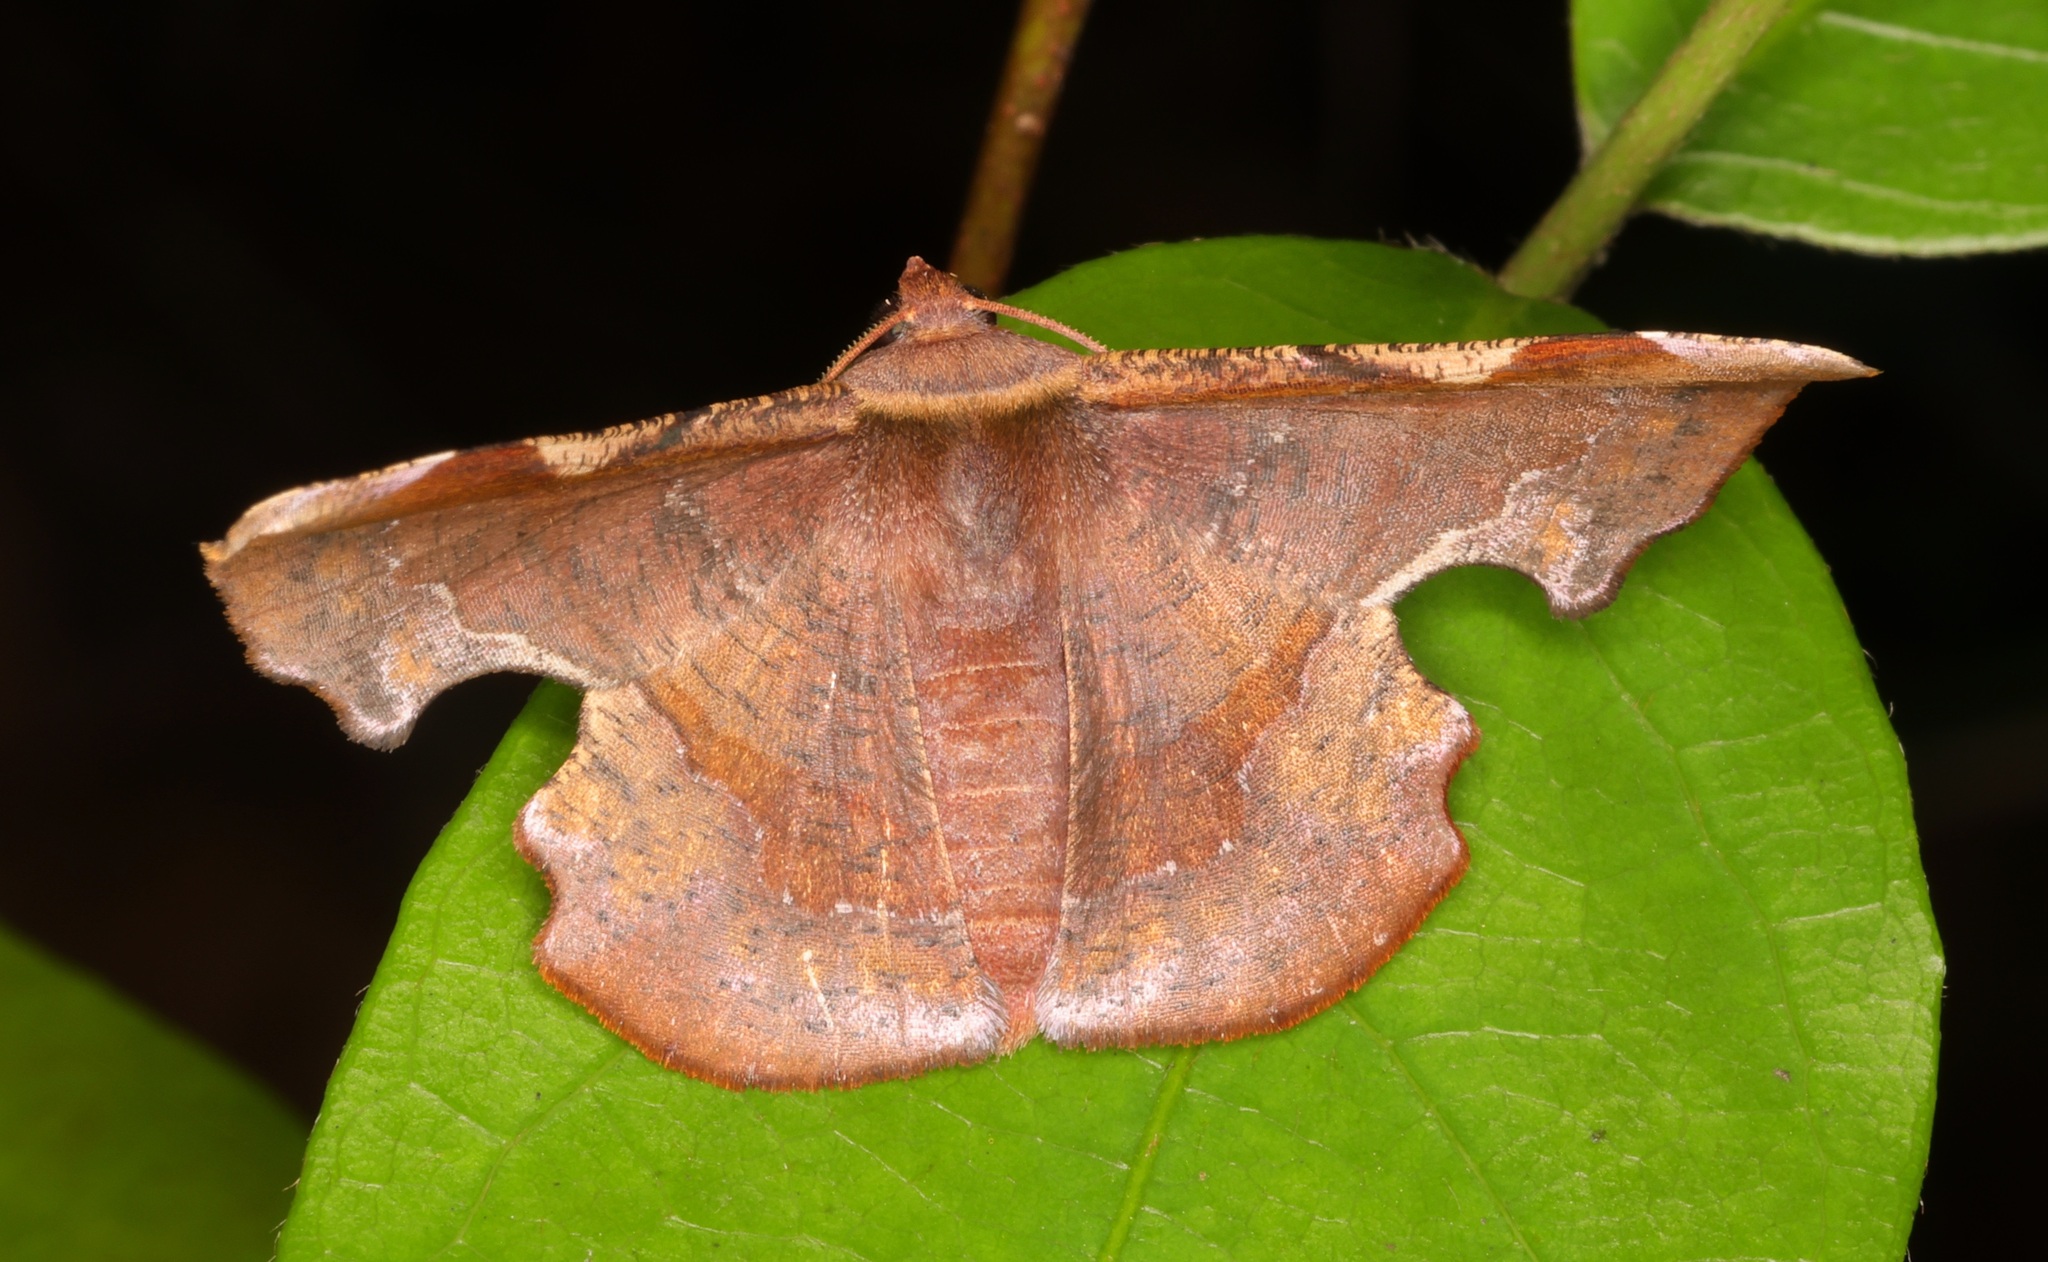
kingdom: Animalia
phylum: Arthropoda
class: Insecta
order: Lepidoptera
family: Geometridae
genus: Fascellina
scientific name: Fascellina chromataria
